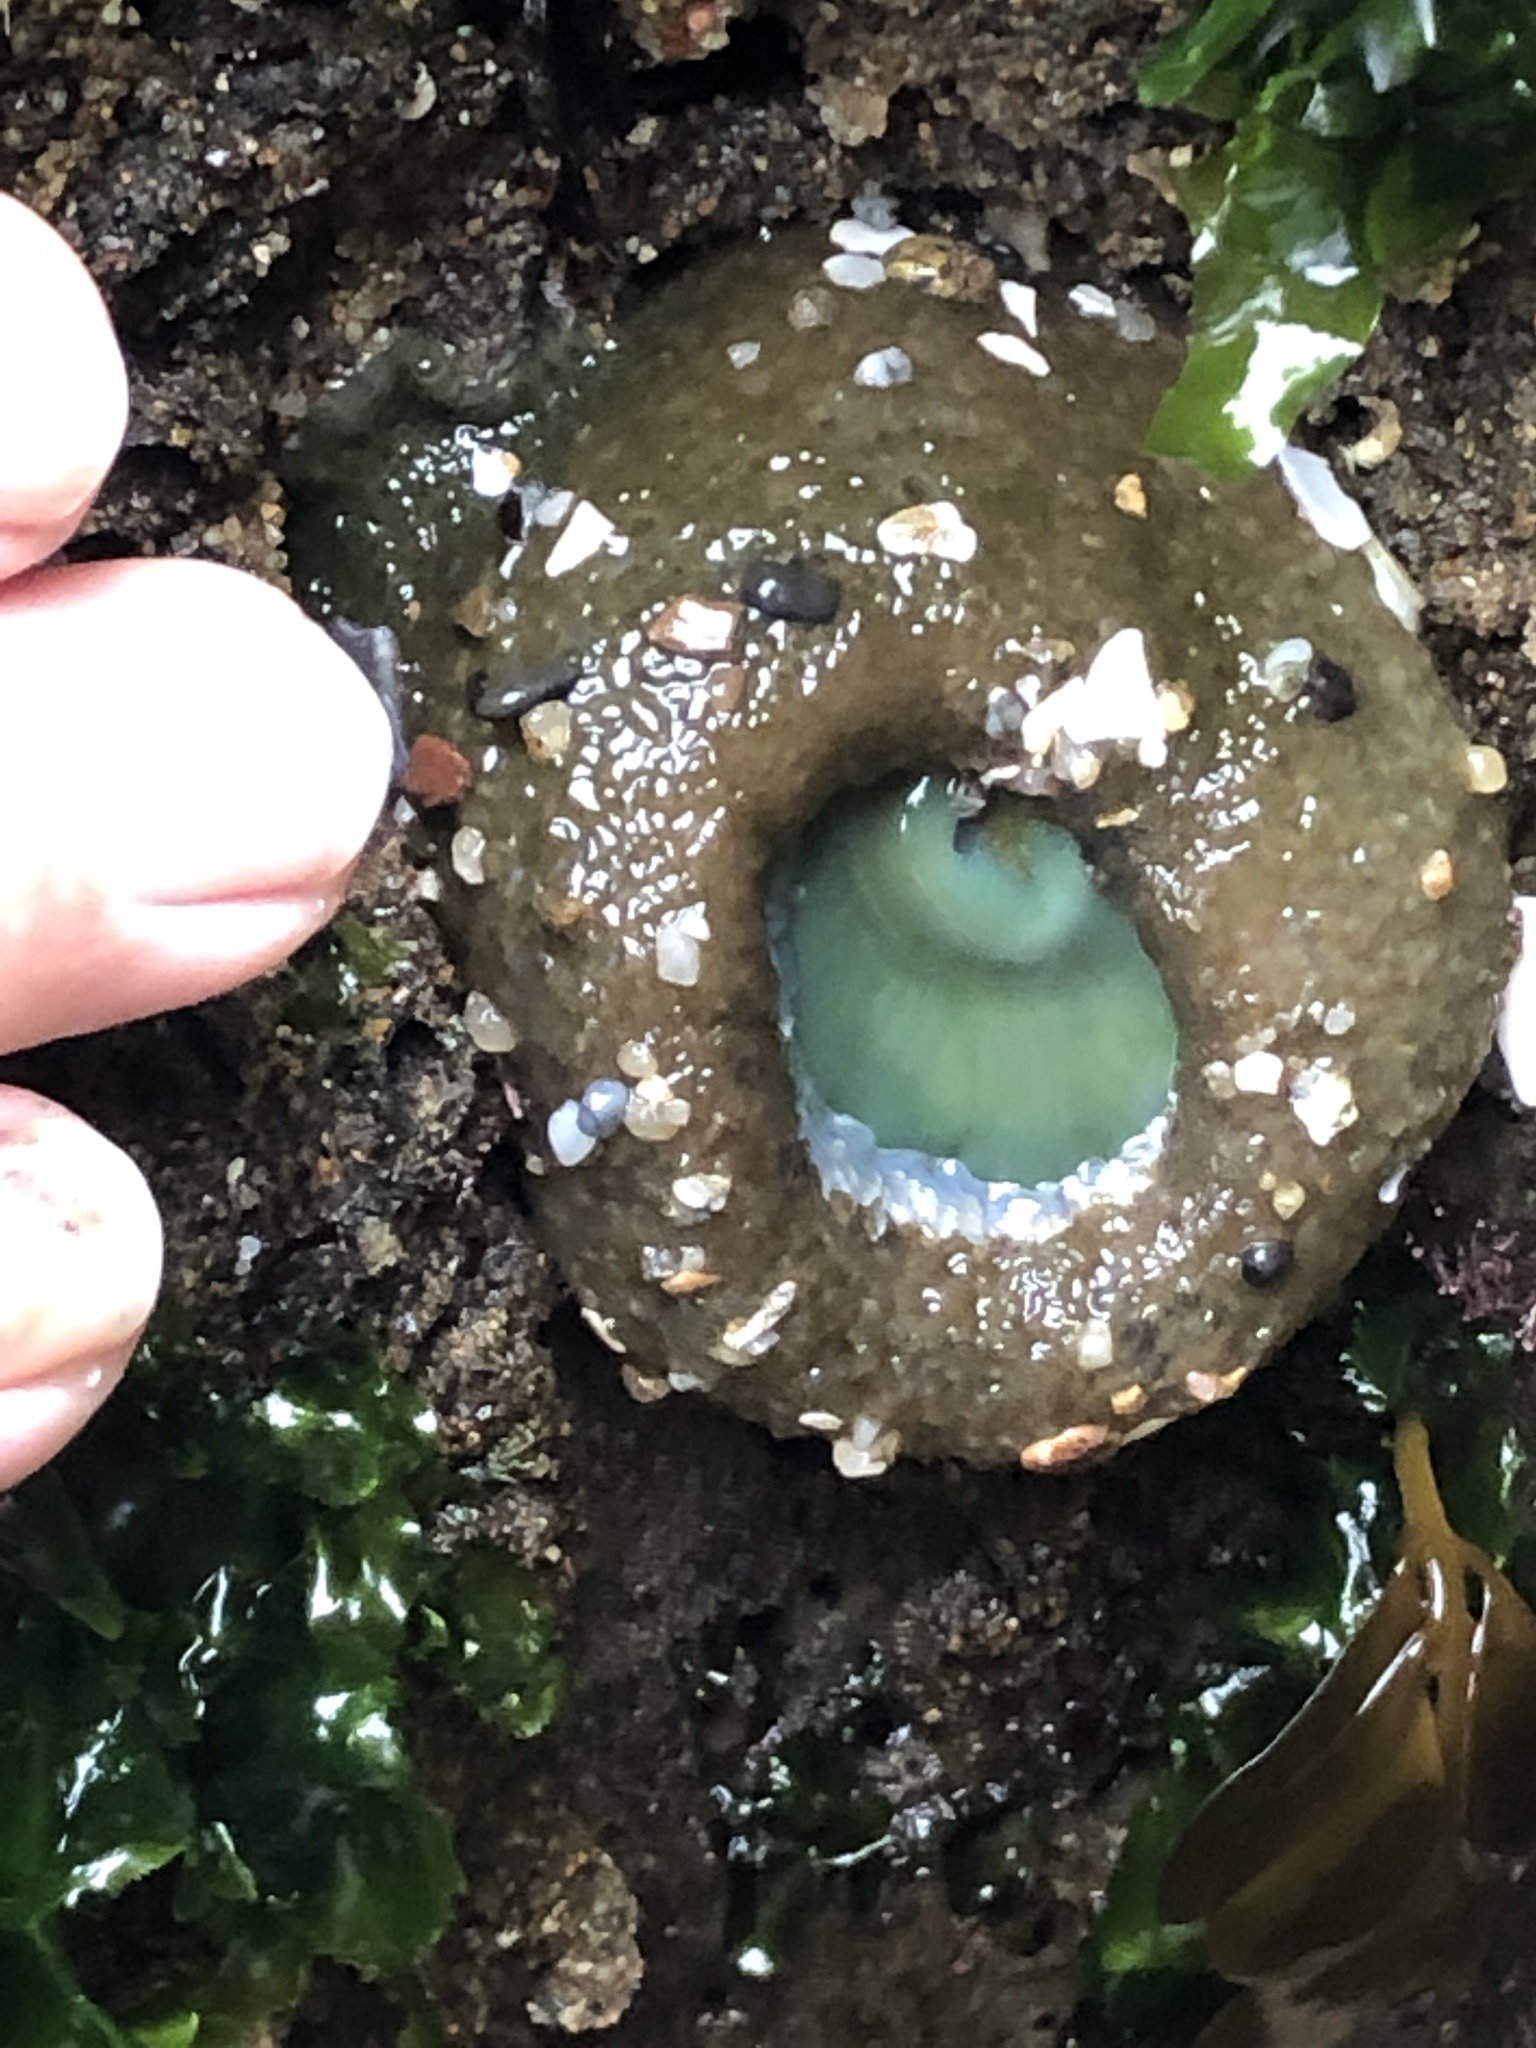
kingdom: Animalia
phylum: Cnidaria
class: Anthozoa
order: Actiniaria
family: Actiniidae
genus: Anthopleura
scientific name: Anthopleura xanthogrammica
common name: Giant green anemone
